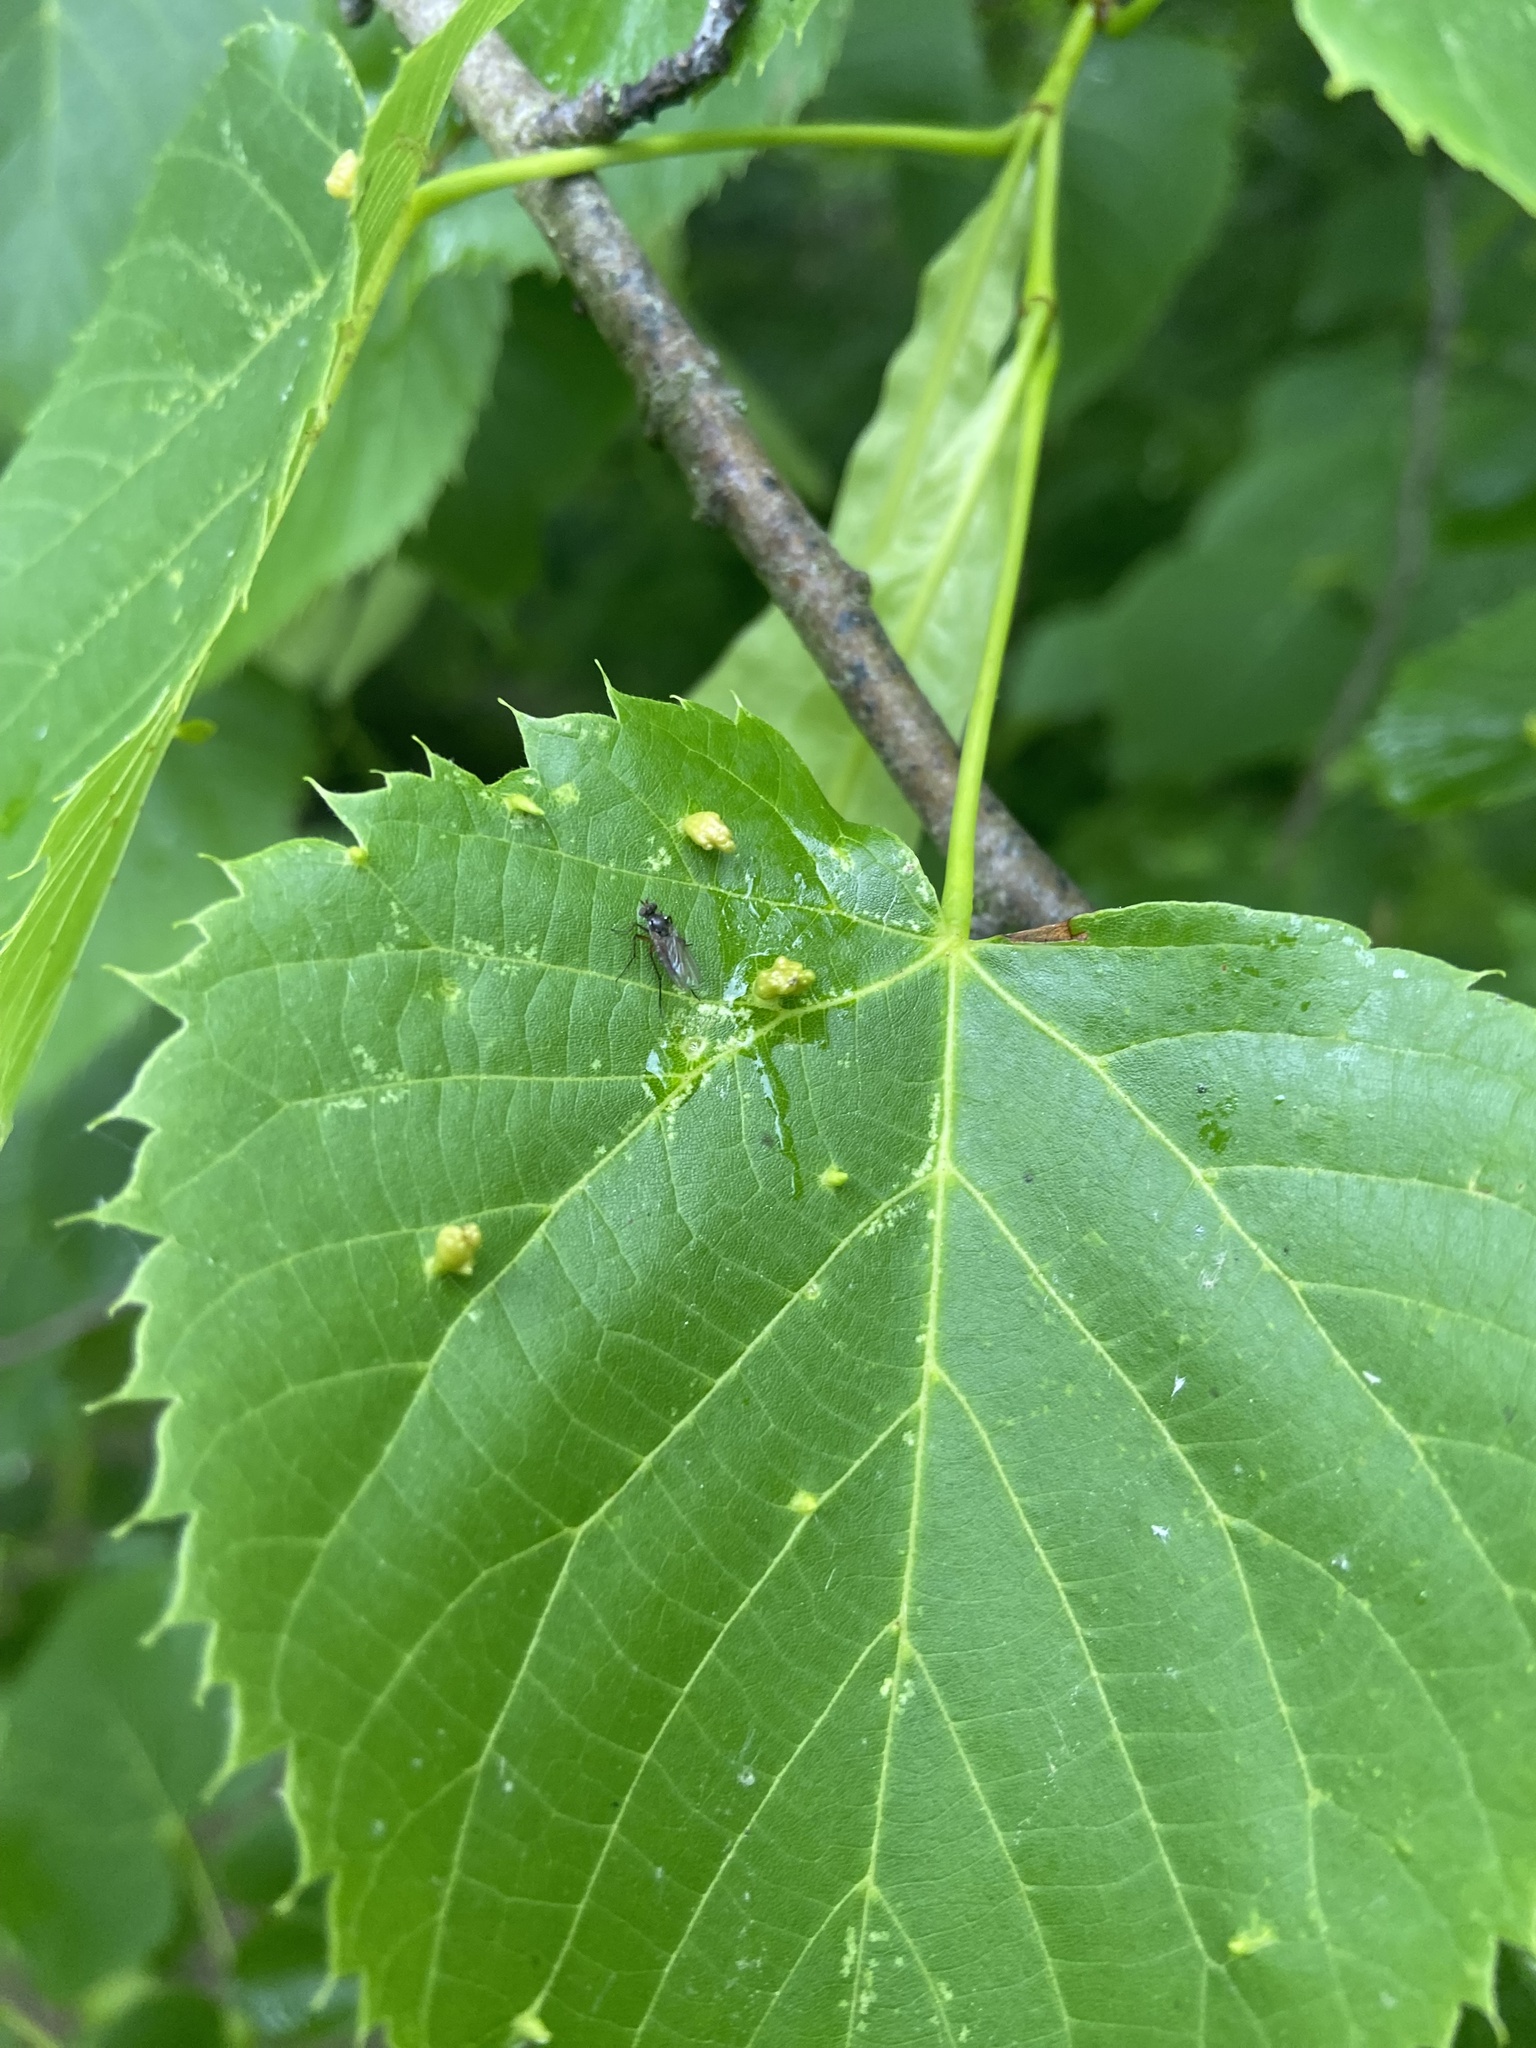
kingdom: Animalia
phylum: Arthropoda
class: Arachnida
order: Trombidiformes
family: Eriophyidae
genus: Eriophyes
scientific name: Eriophyes tiliae
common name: Red nail gall mite
